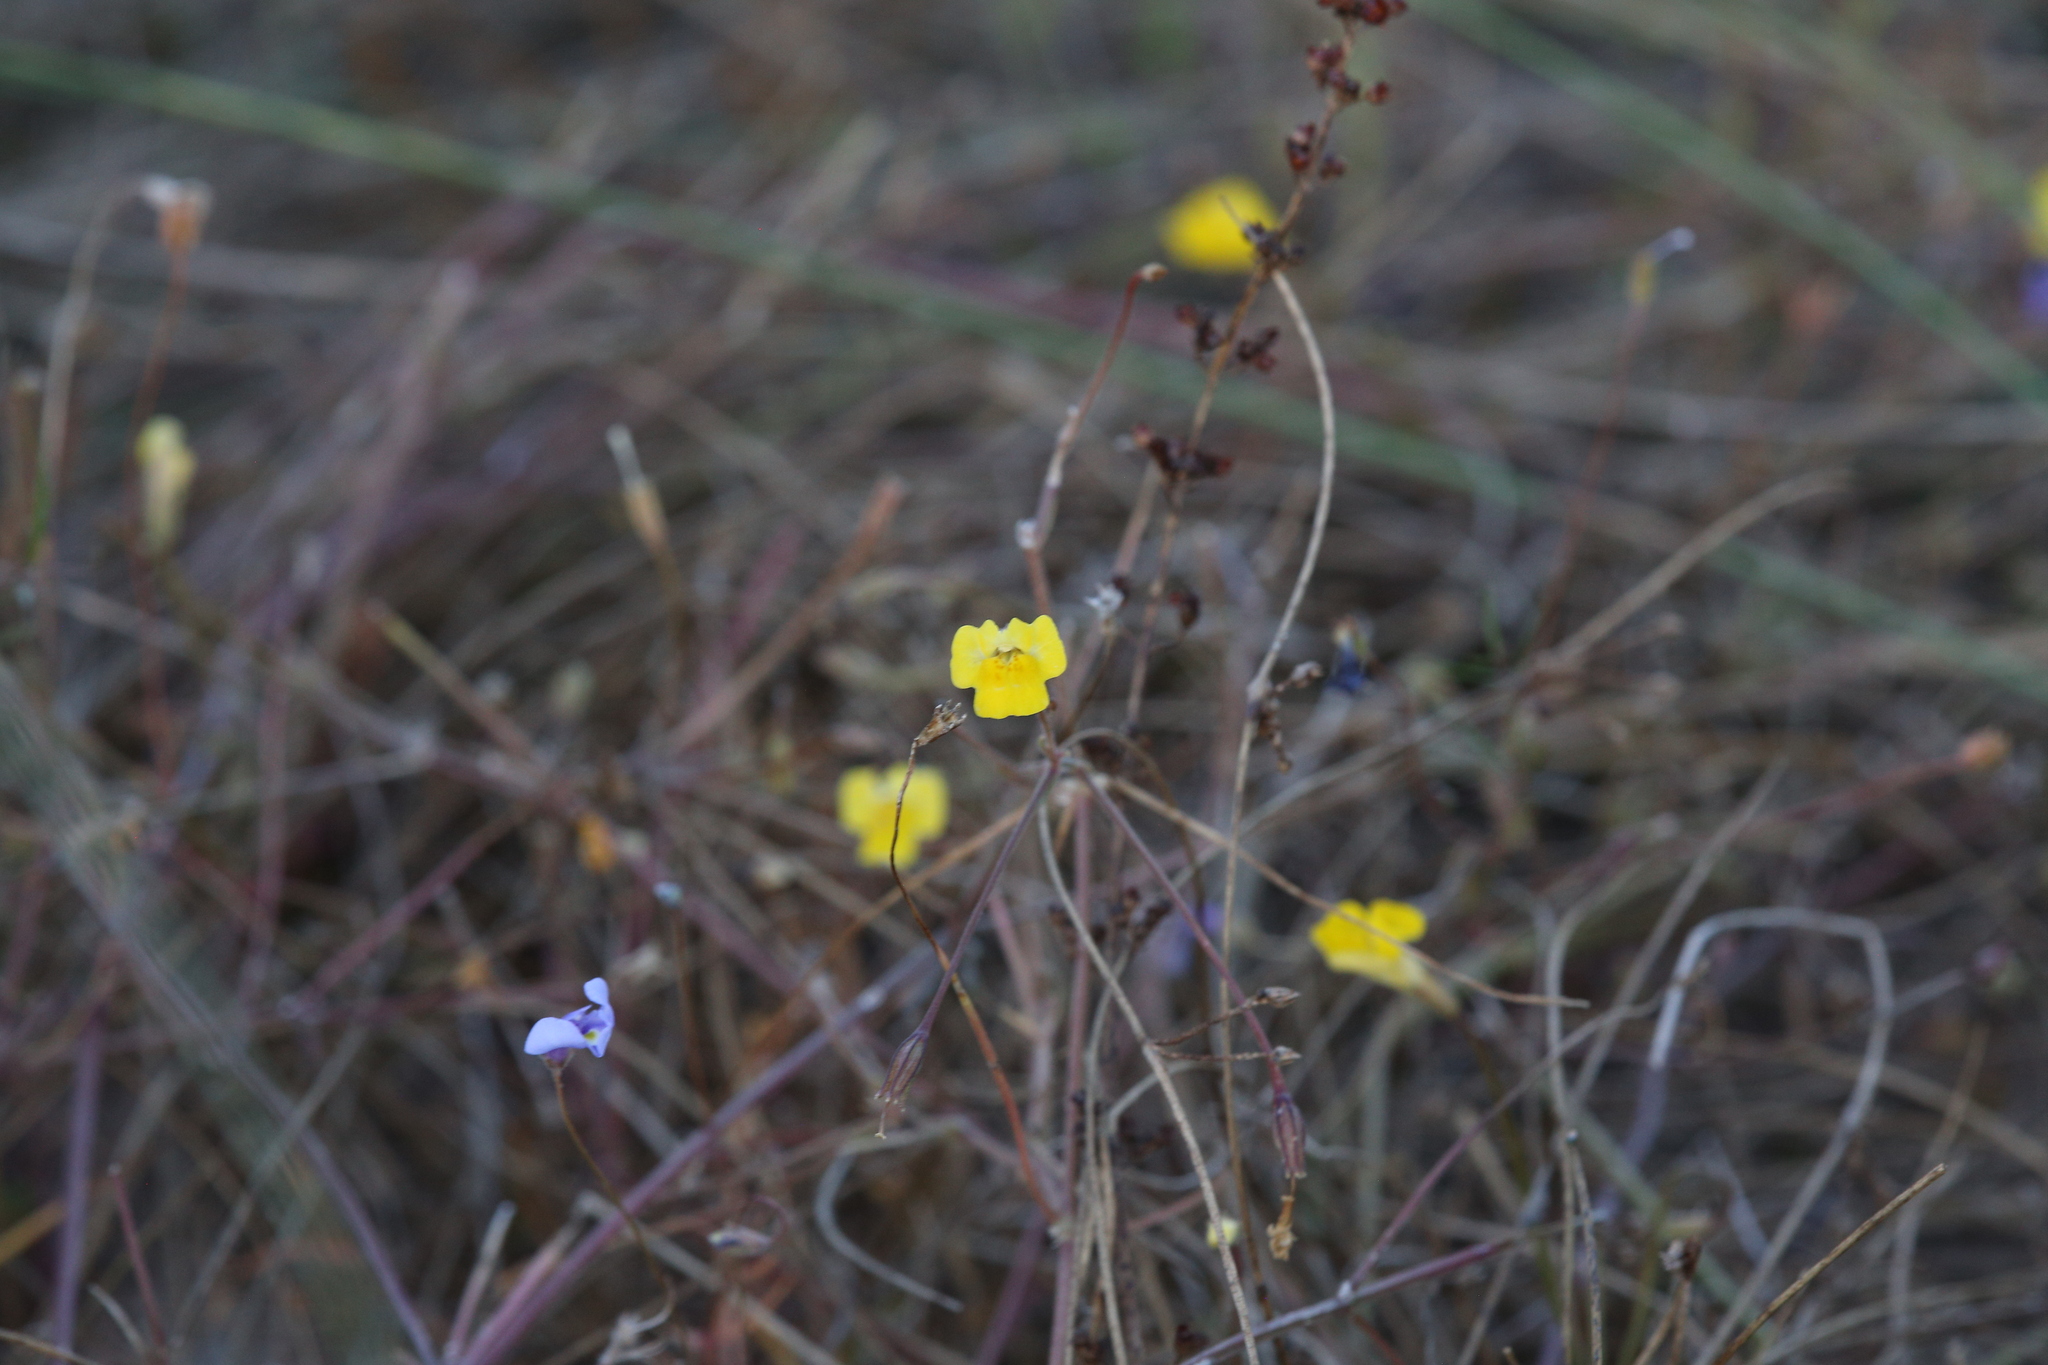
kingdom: Plantae
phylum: Tracheophyta
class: Magnoliopsida
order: Lamiales
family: Phrymaceae
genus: Uvedalia
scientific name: Uvedalia linearis
